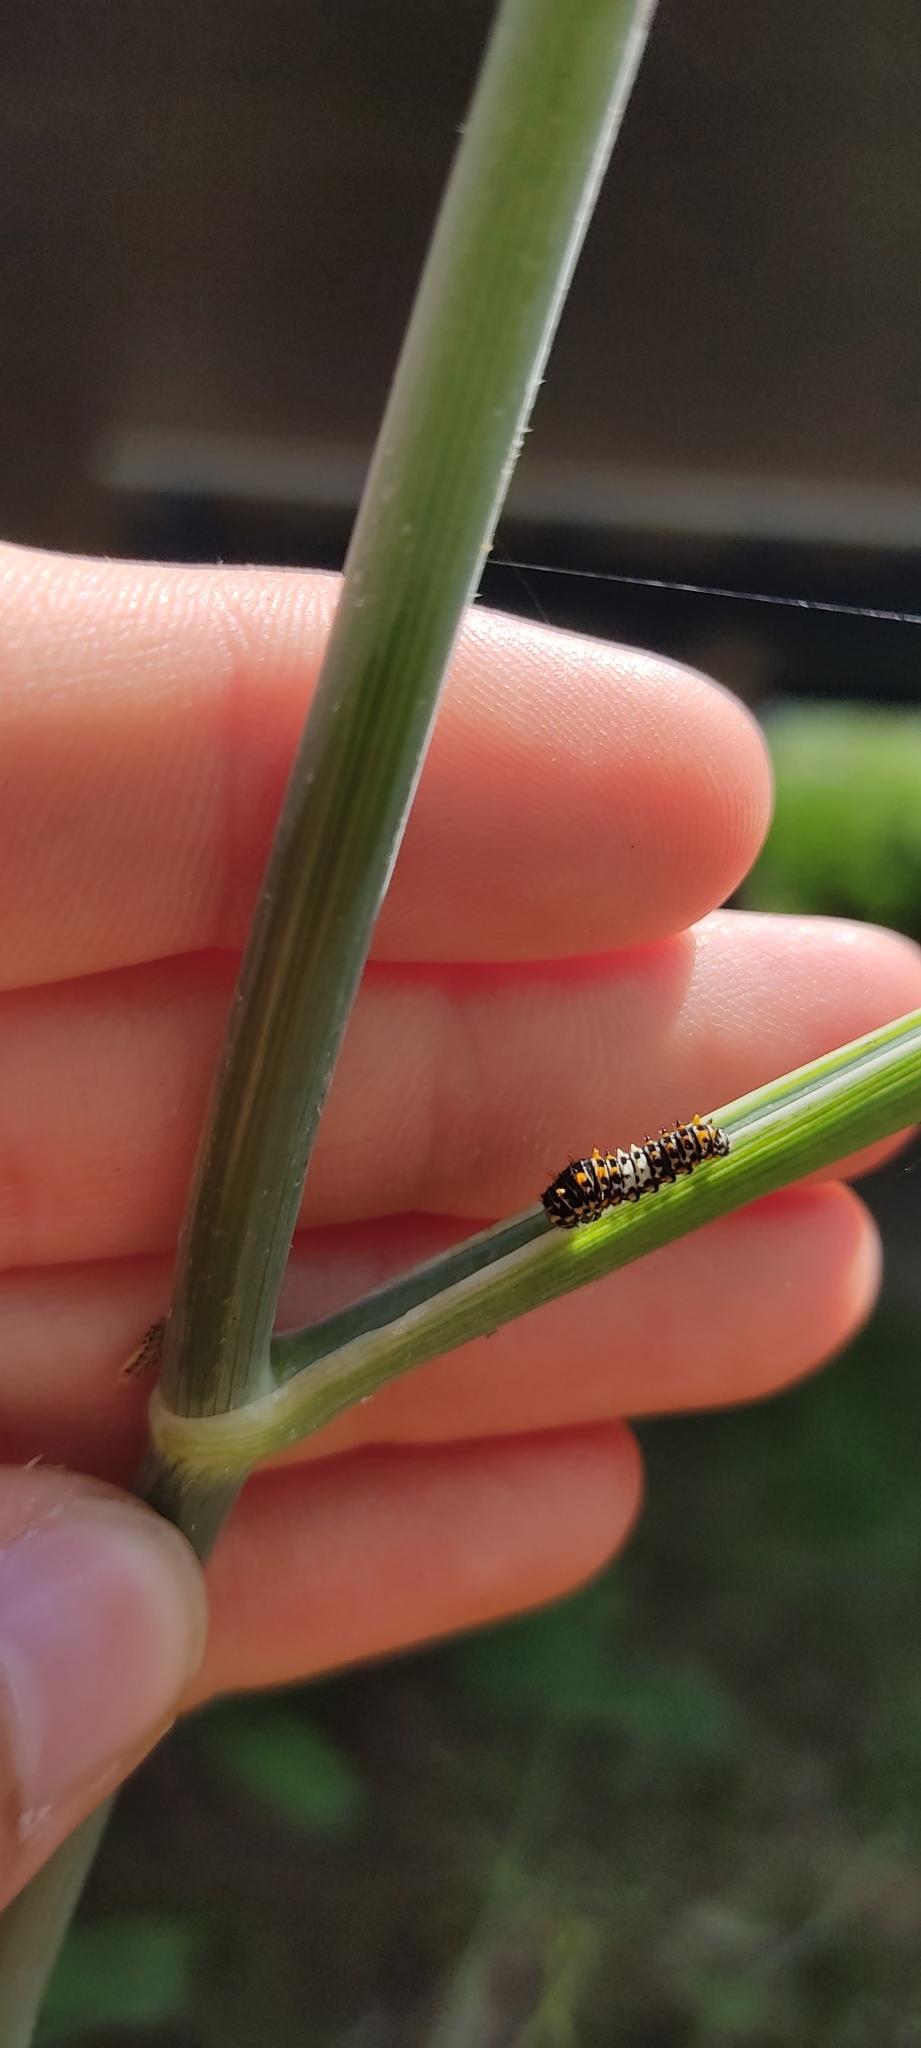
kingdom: Animalia
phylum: Arthropoda
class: Insecta
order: Lepidoptera
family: Papilionidae
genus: Papilio
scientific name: Papilio machaon
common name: Swallowtail
